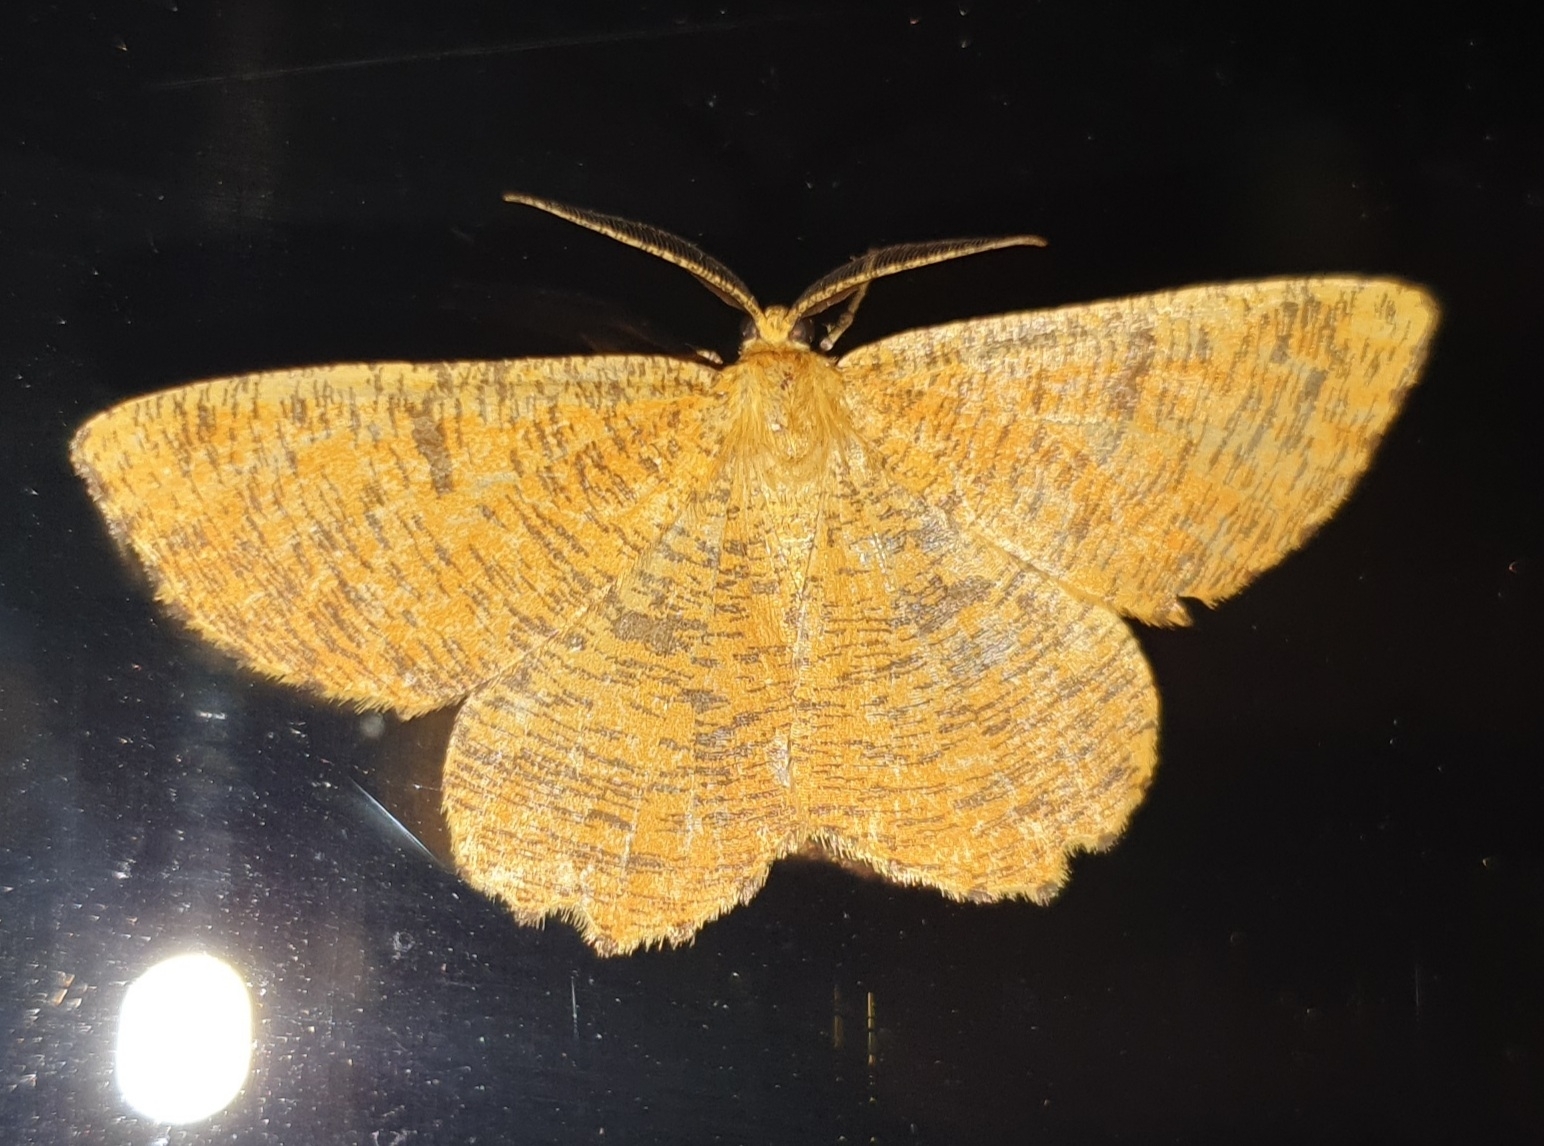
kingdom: Animalia
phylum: Arthropoda
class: Insecta
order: Lepidoptera
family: Geometridae
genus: Angerona
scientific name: Angerona prunaria
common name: Orange moth
